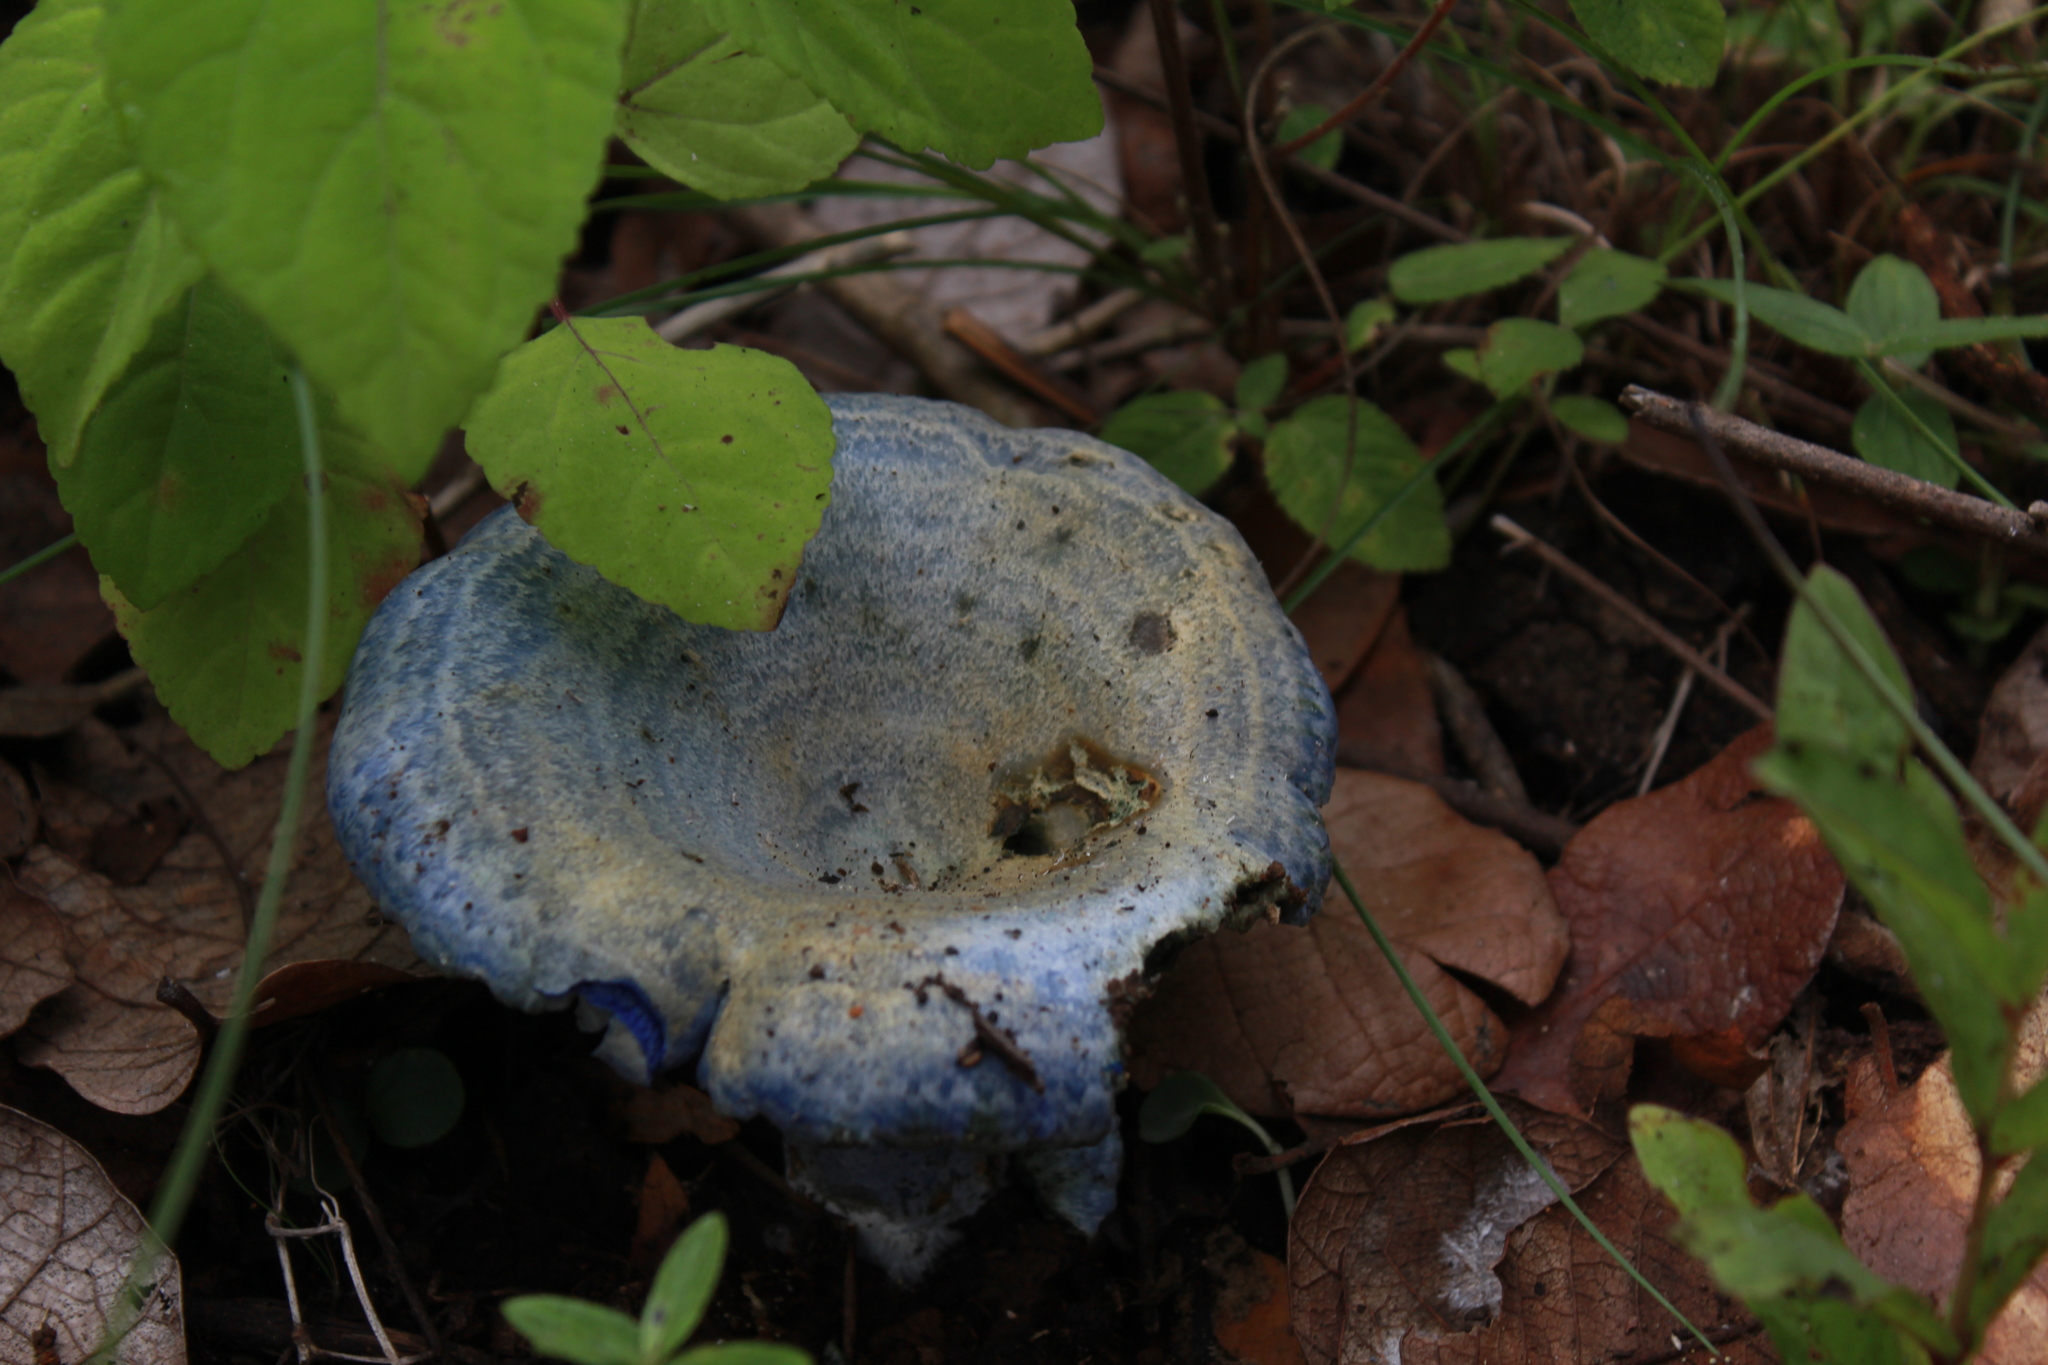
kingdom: Fungi
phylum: Basidiomycota
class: Agaricomycetes
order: Russulales
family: Russulaceae
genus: Lactarius
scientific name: Lactarius indigo
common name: Indigo milk cap
